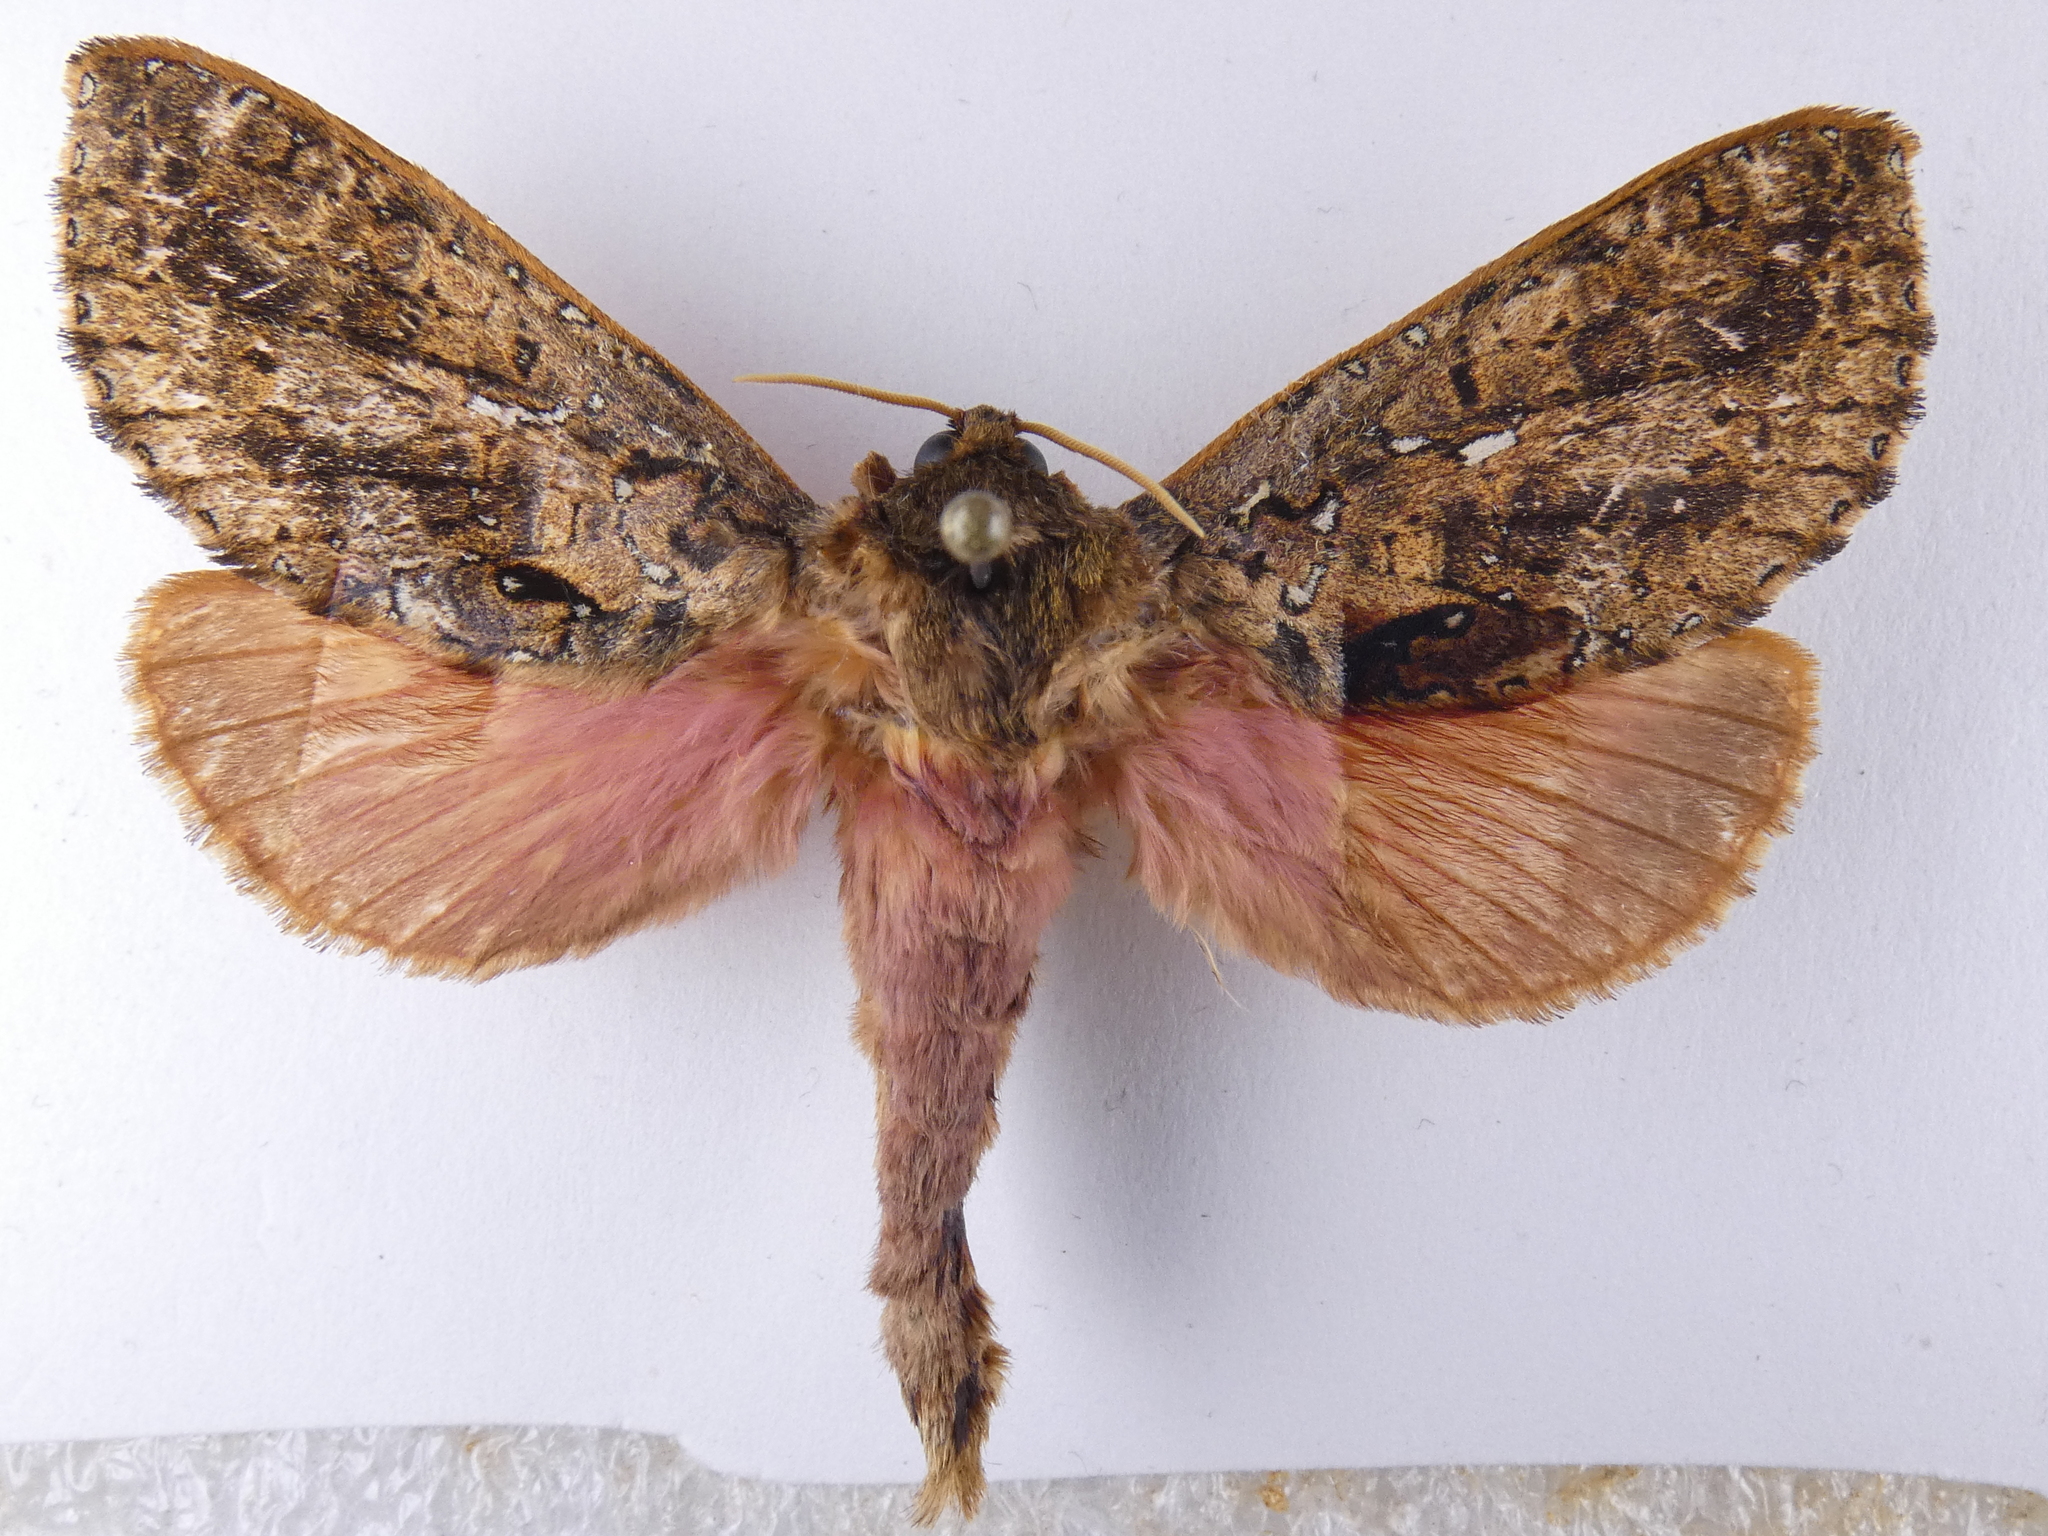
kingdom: Animalia
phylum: Arthropoda
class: Insecta
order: Lepidoptera
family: Hepialidae
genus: Dumbletonius
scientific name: Dumbletonius unimaculata
